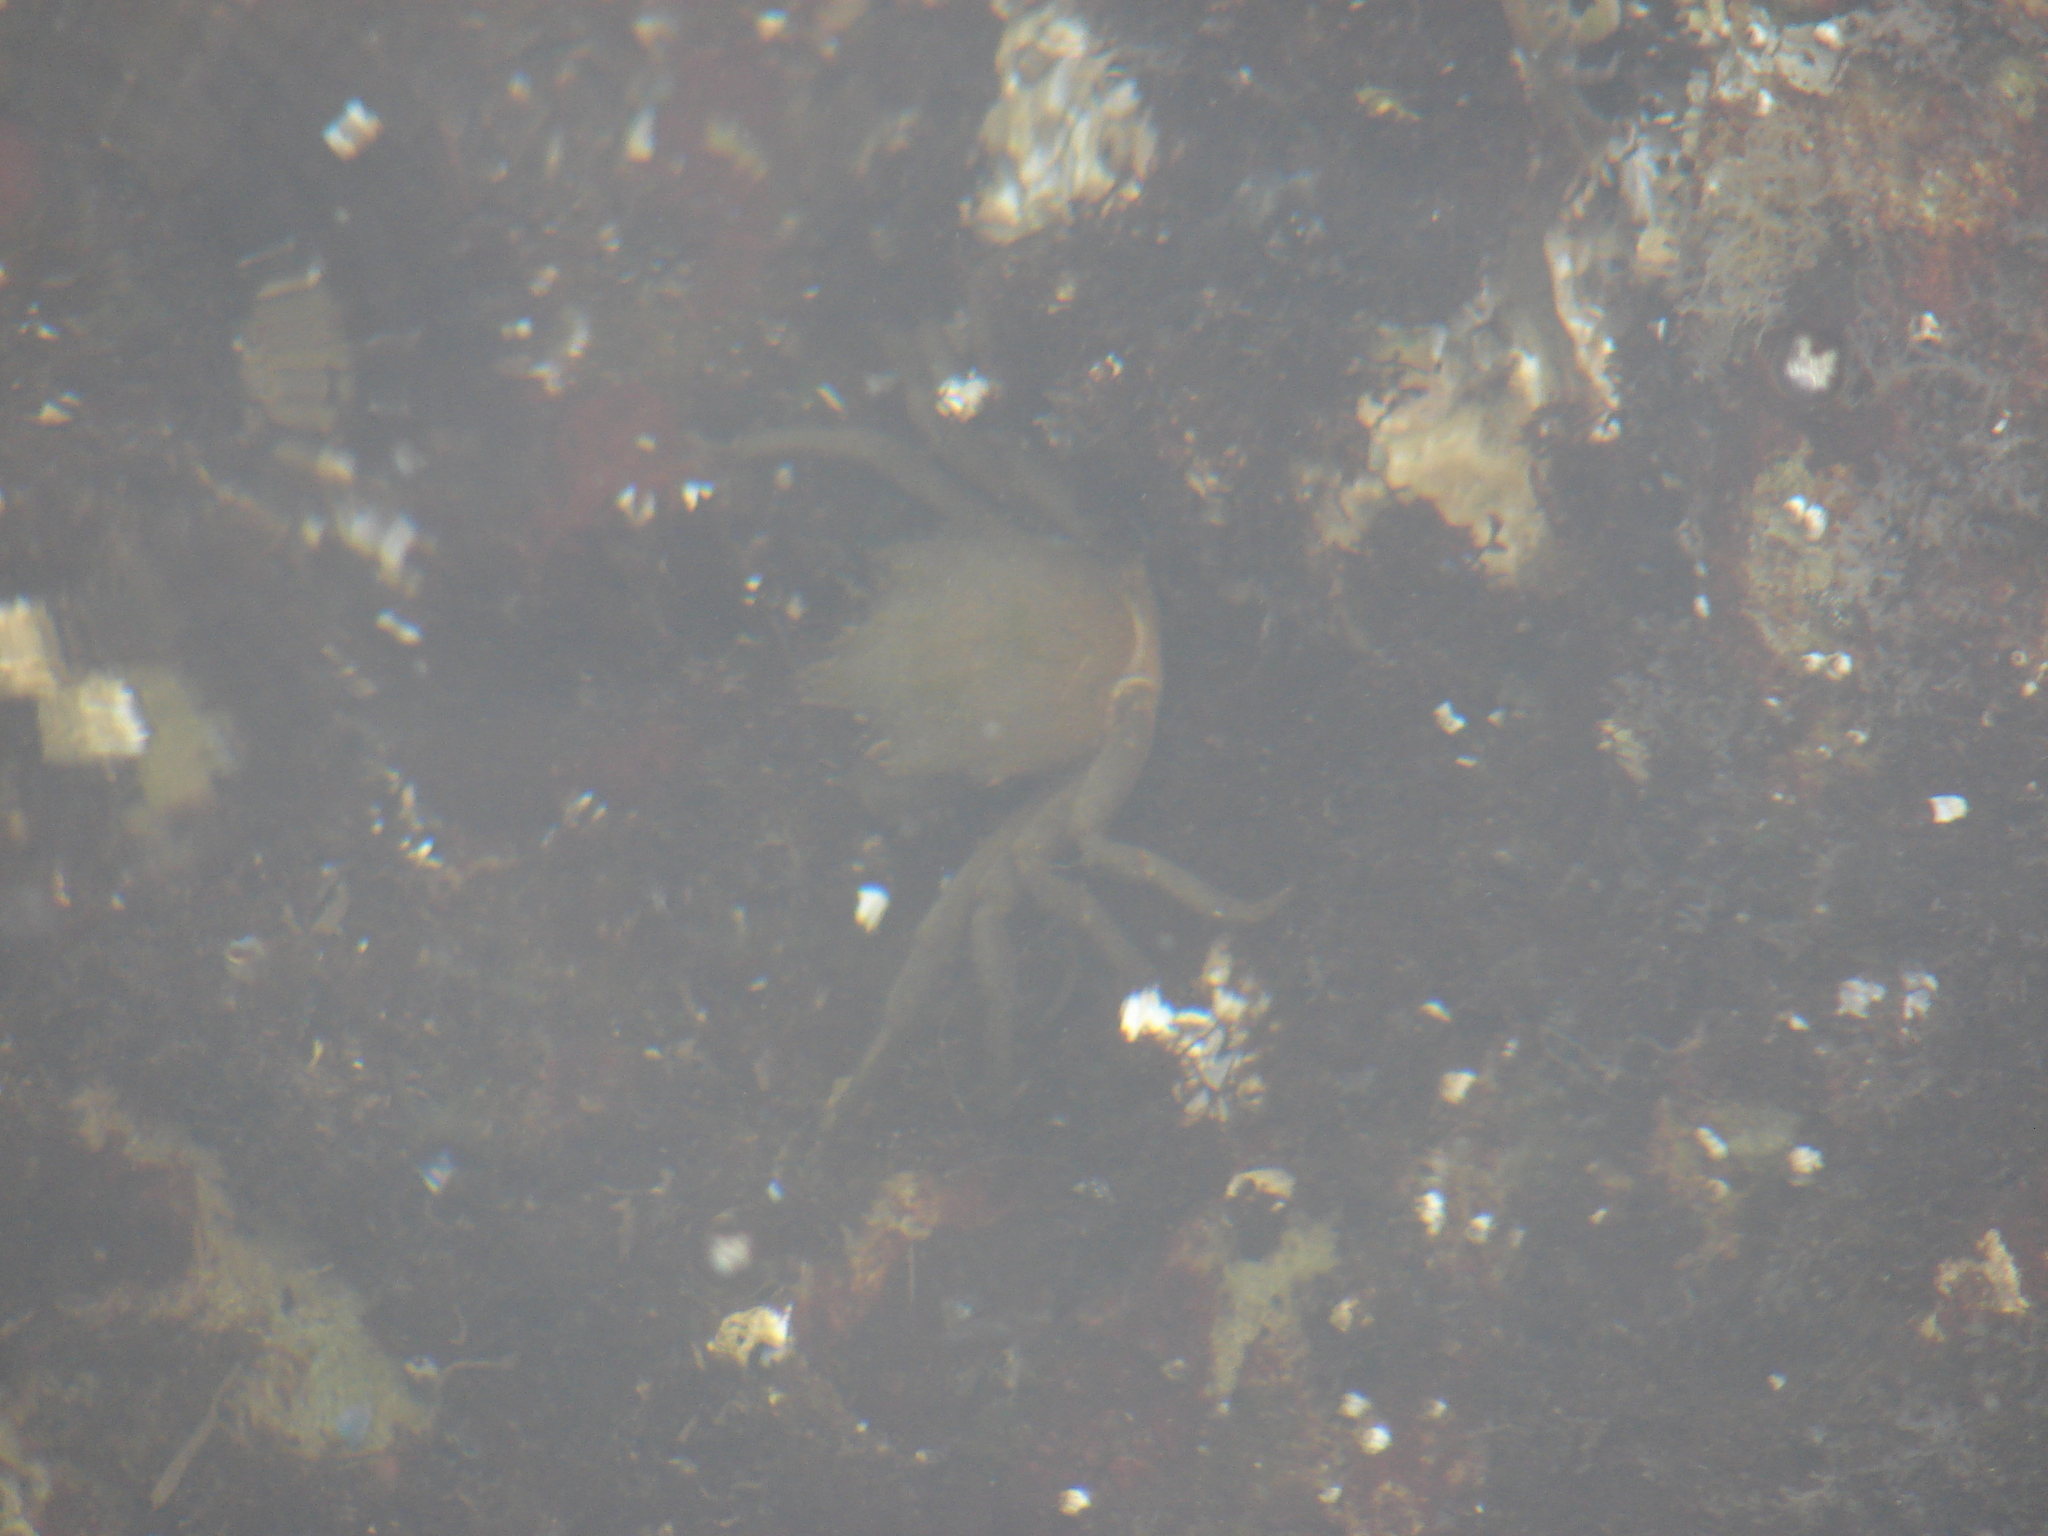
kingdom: Animalia
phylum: Arthropoda
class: Malacostraca
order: Decapoda
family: Epialtidae
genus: Pugettia
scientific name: Pugettia producta
